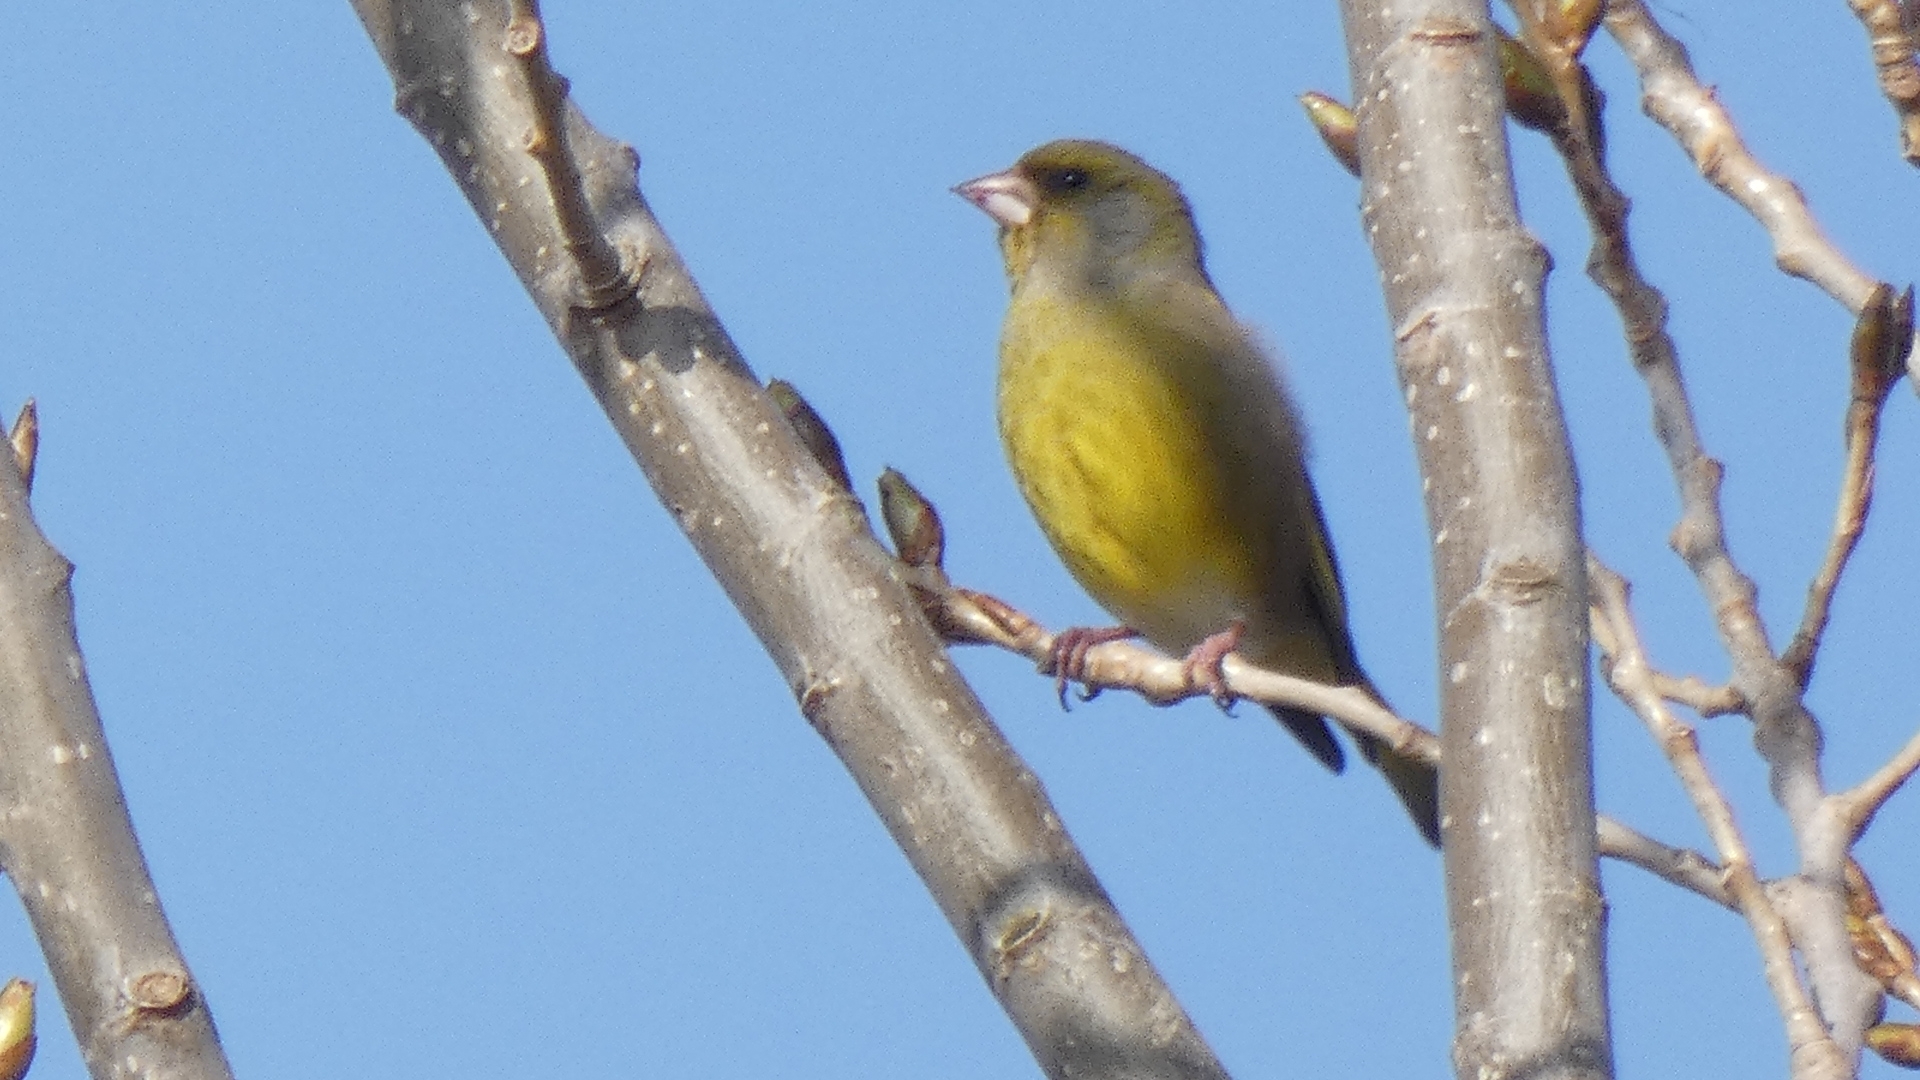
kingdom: Plantae
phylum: Tracheophyta
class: Liliopsida
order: Poales
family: Poaceae
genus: Chloris
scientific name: Chloris chloris
